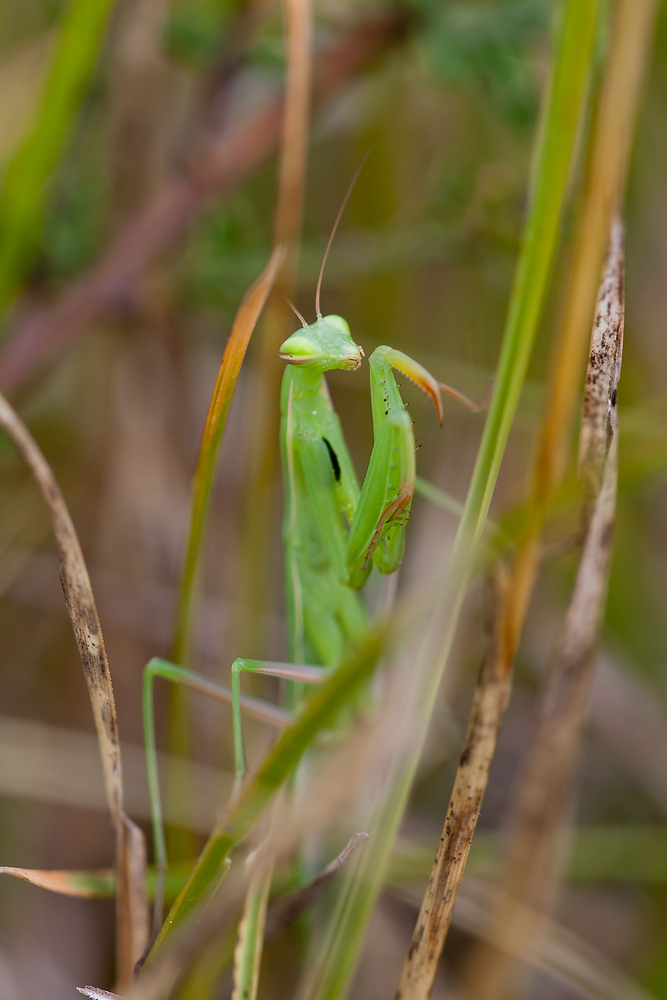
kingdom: Animalia
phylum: Arthropoda
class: Insecta
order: Mantodea
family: Mantidae
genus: Mantis
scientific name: Mantis religiosa
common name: Praying mantis
